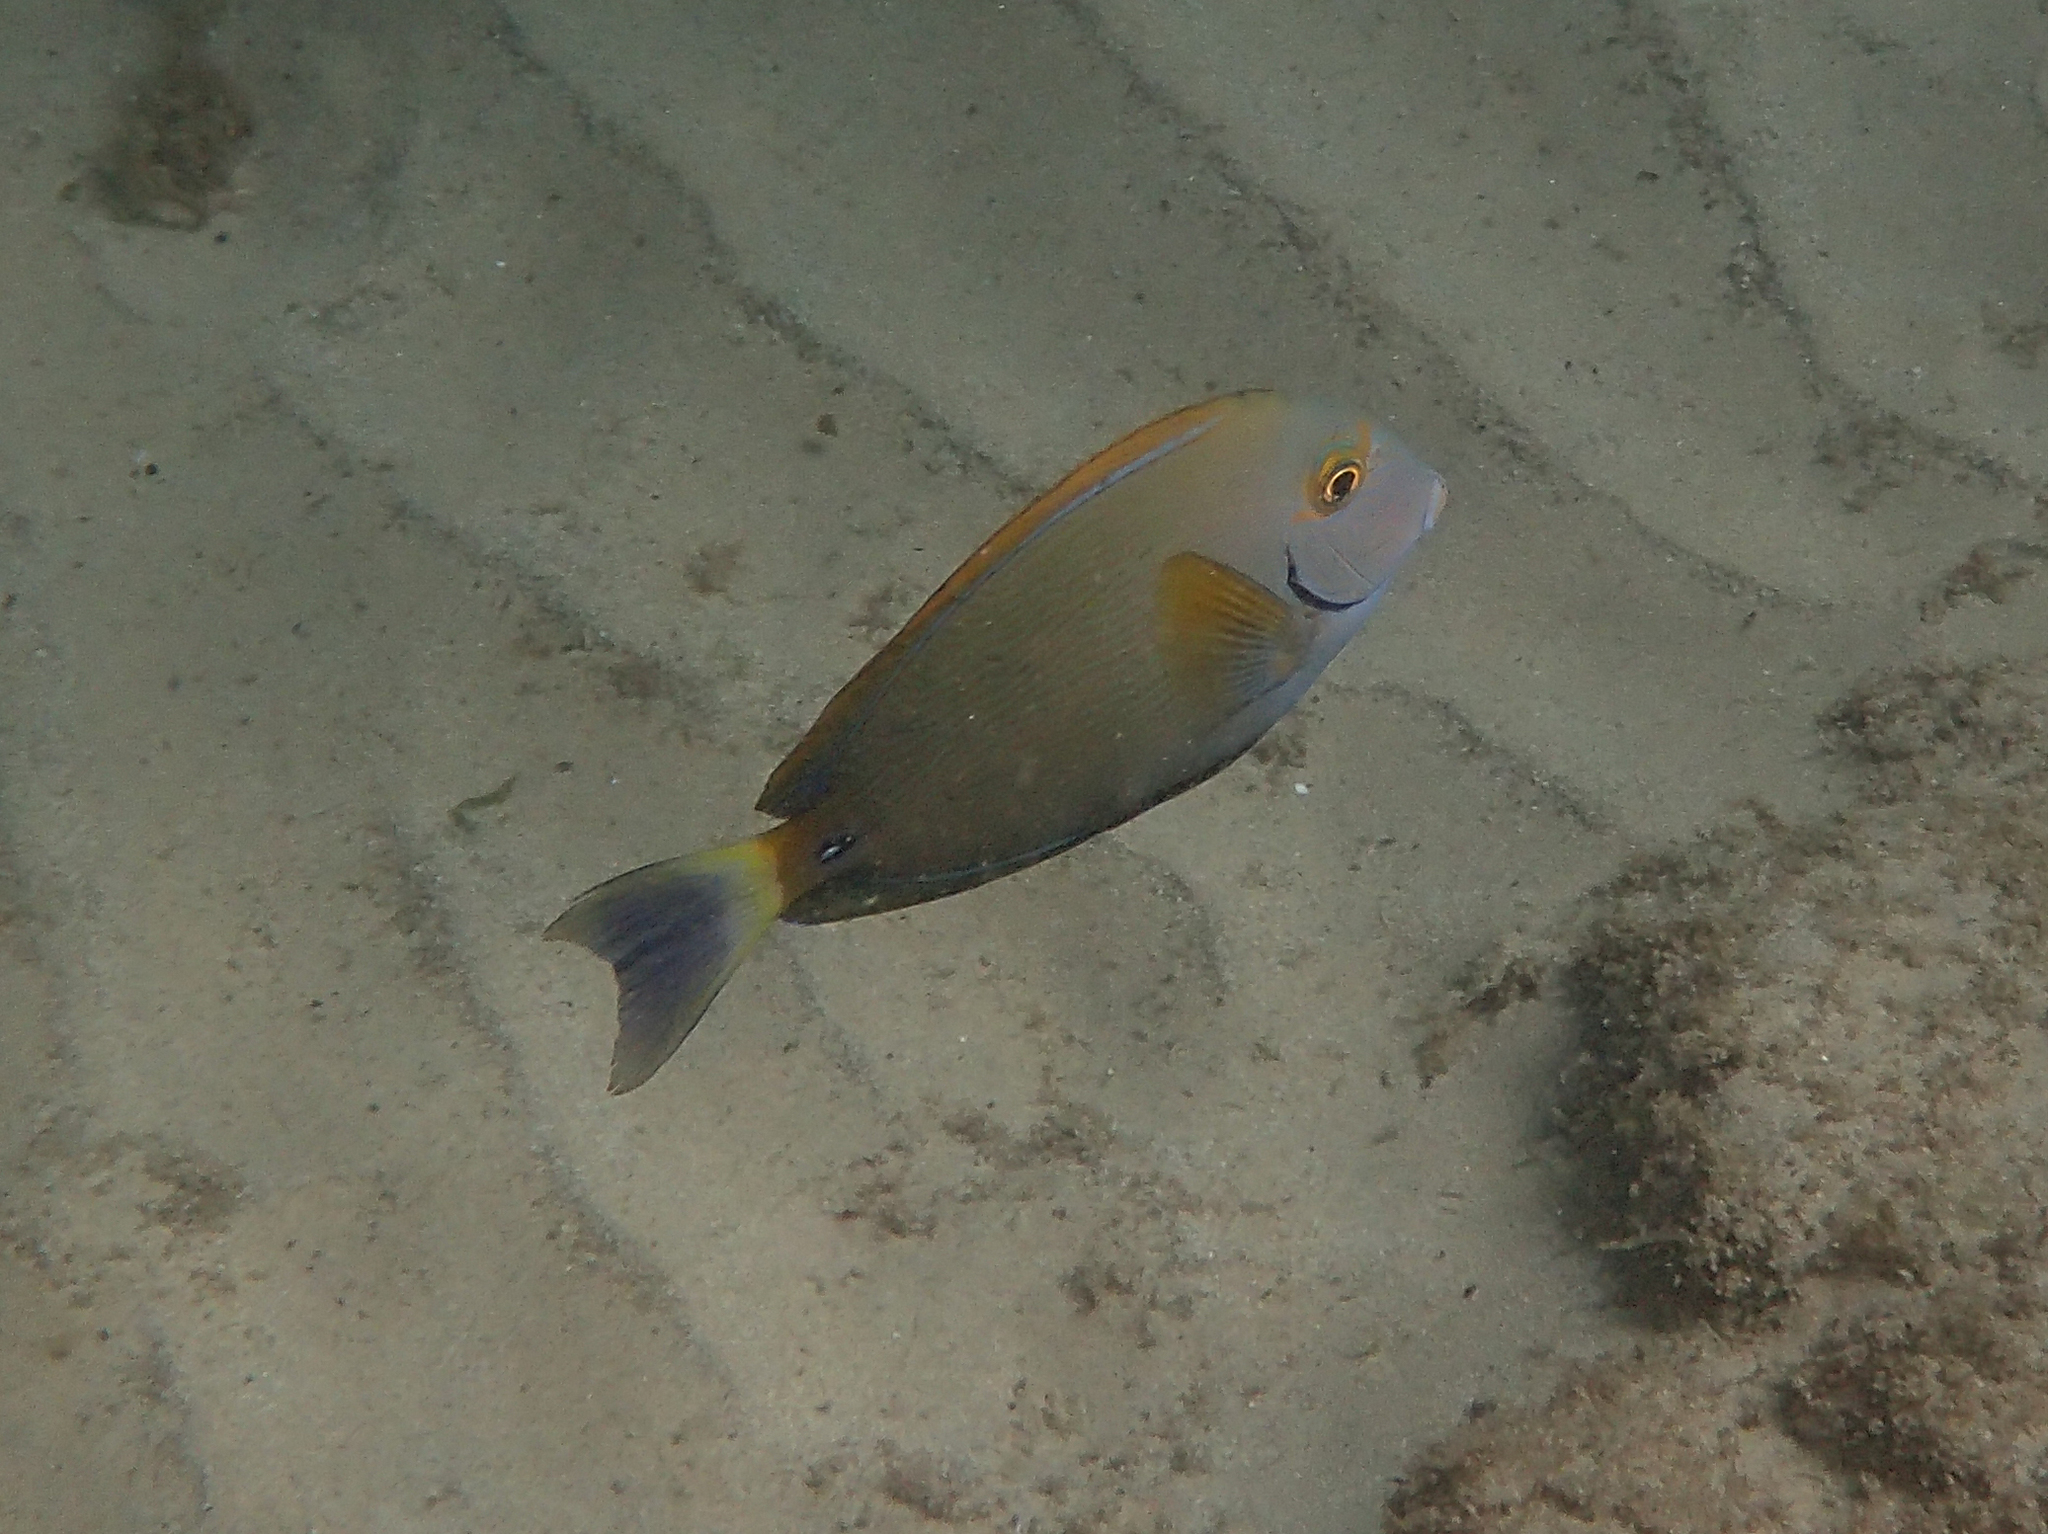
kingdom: Animalia
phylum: Chordata
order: Perciformes
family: Acanthuridae
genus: Acanthurus
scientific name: Acanthurus dussumieri
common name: Dussumier's surgeonfish
